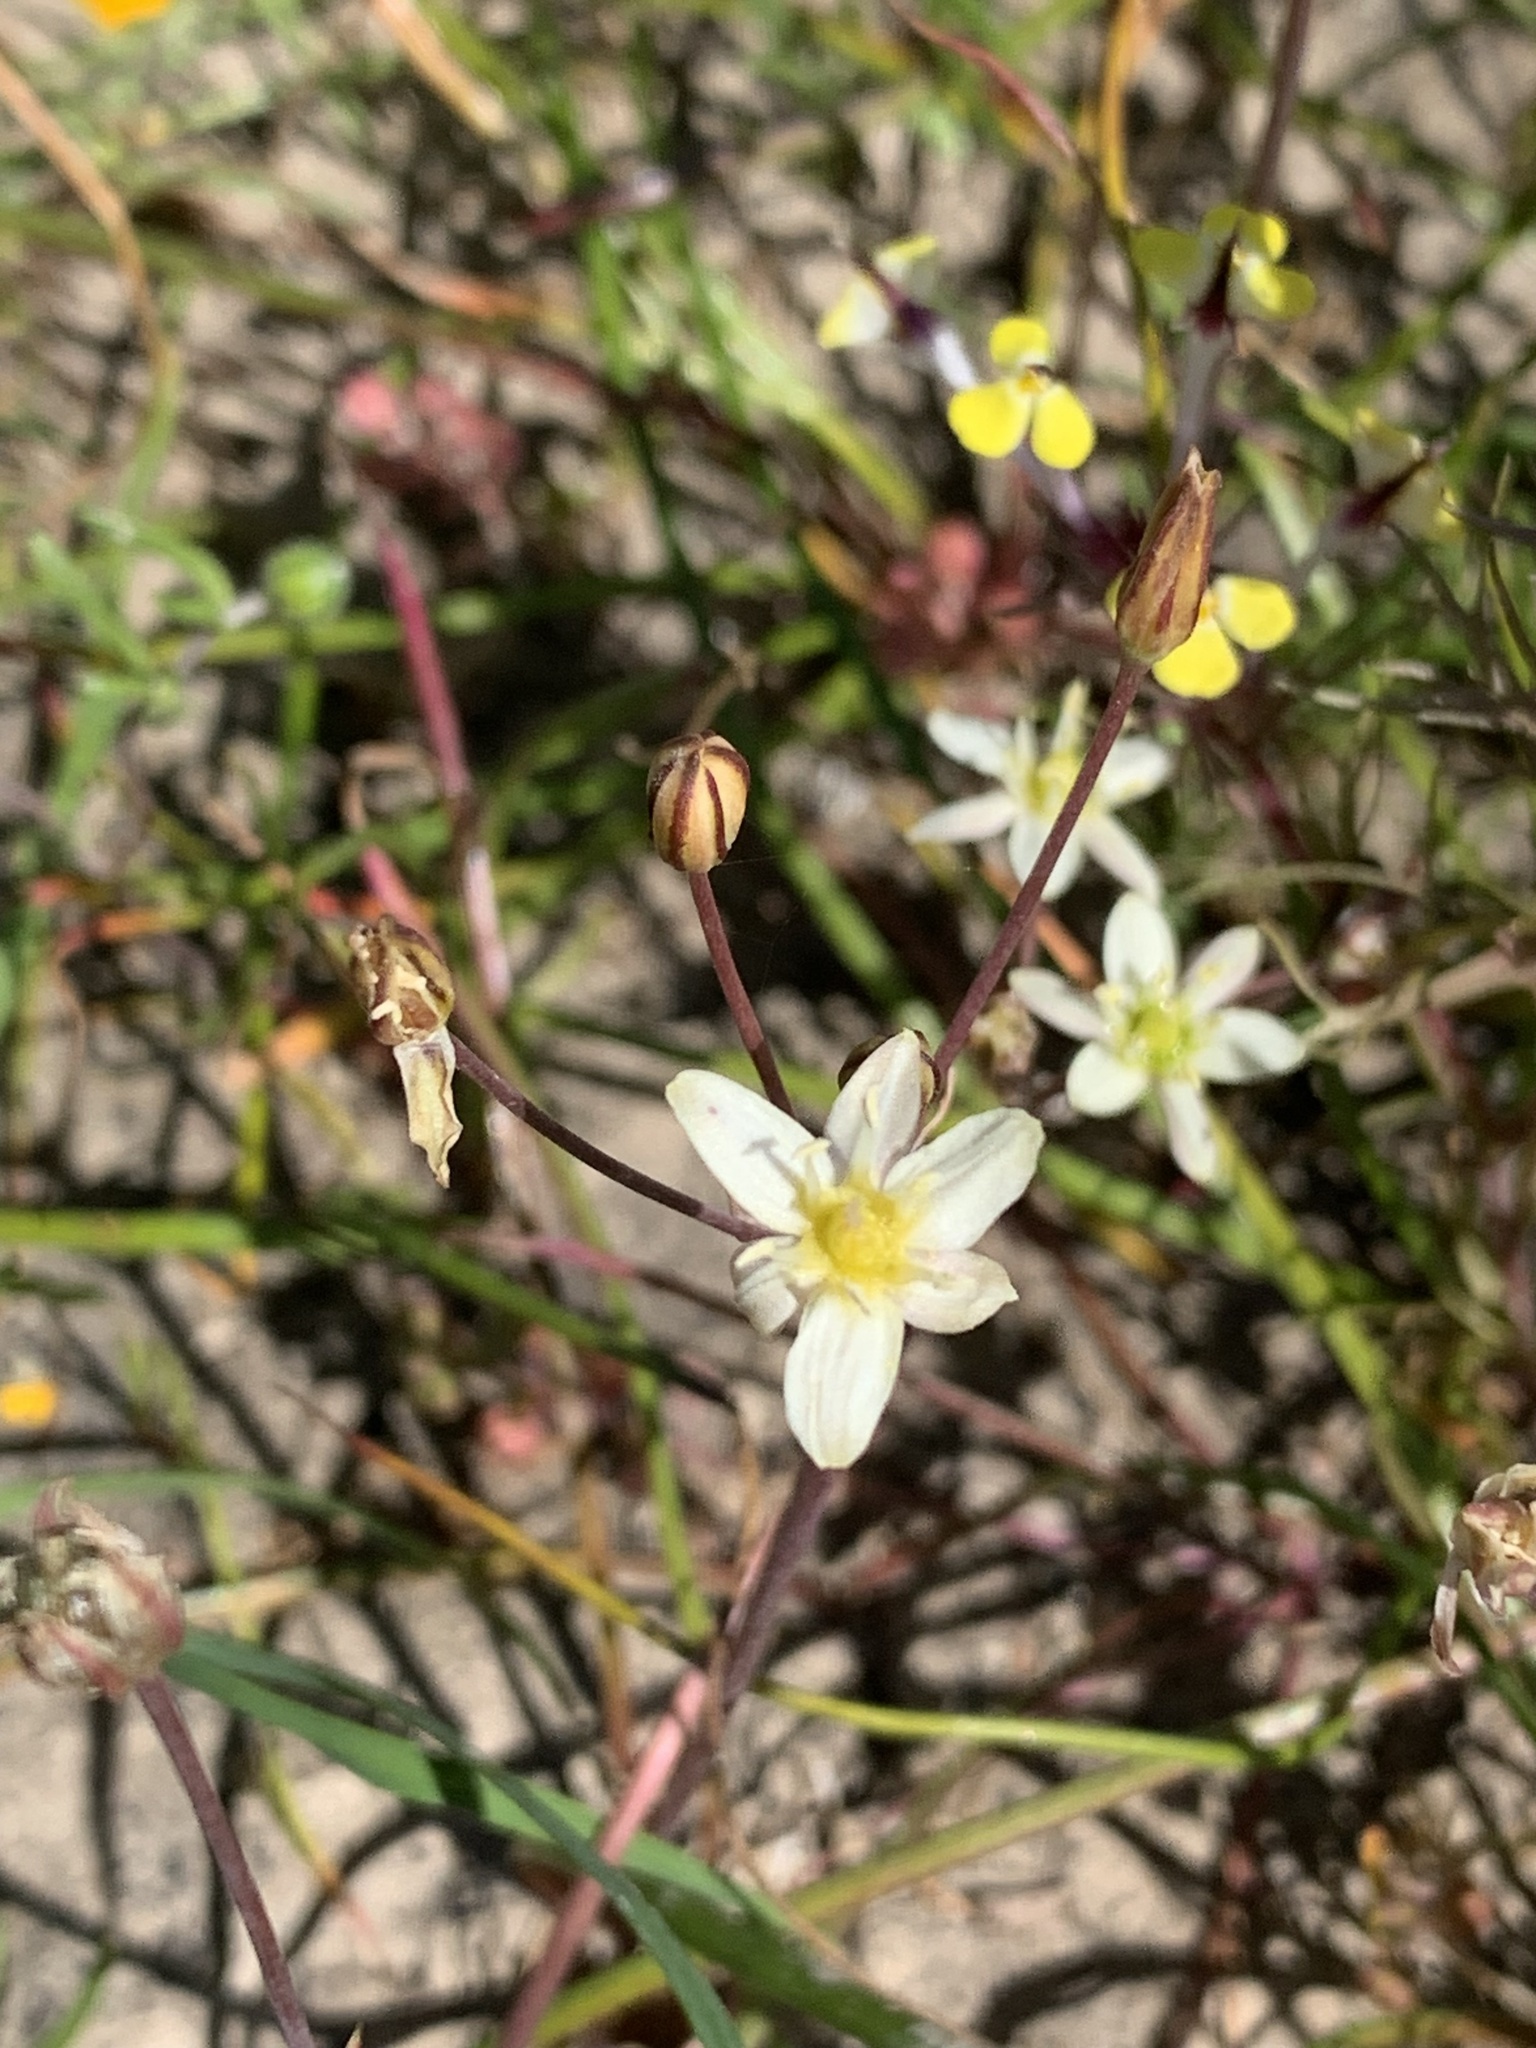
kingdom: Plantae
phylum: Tracheophyta
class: Liliopsida
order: Asparagales
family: Asparagaceae
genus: Muilla
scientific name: Muilla maritima
